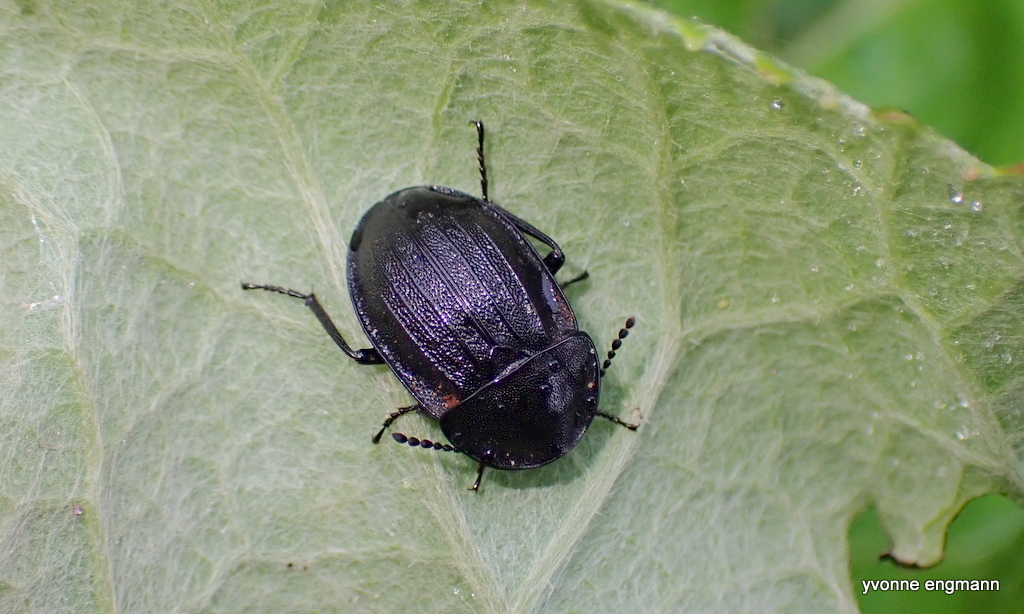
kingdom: Animalia
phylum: Arthropoda
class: Insecta
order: Coleoptera
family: Staphylinidae
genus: Silpha
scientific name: Silpha atrata
